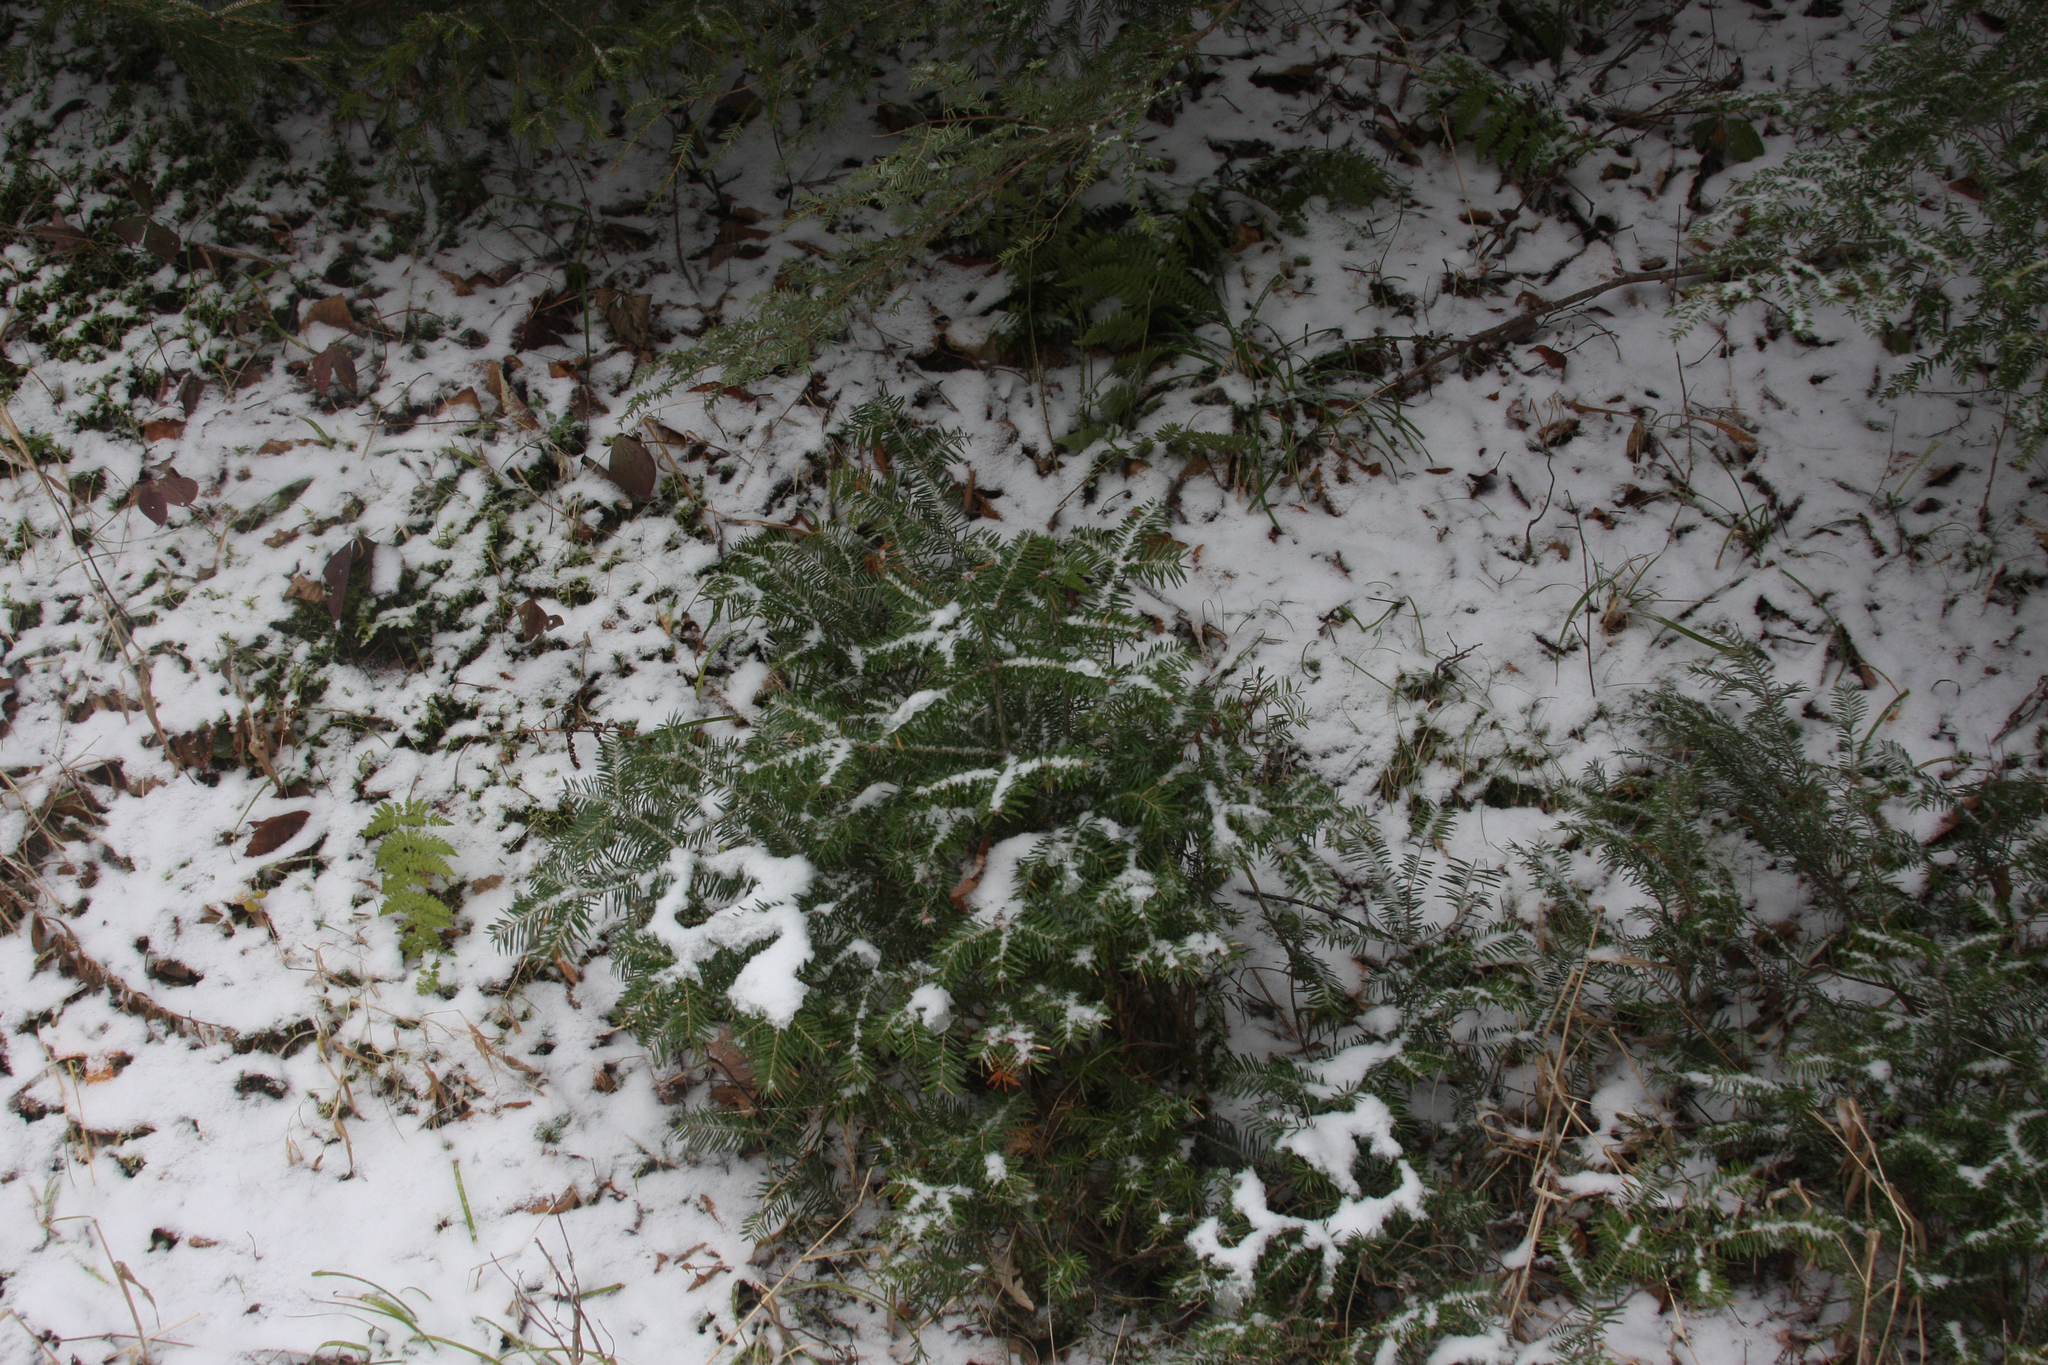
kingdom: Plantae
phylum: Tracheophyta
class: Pinopsida
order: Pinales
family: Pinaceae
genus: Abies
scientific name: Abies balsamea
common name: Balsam fir
